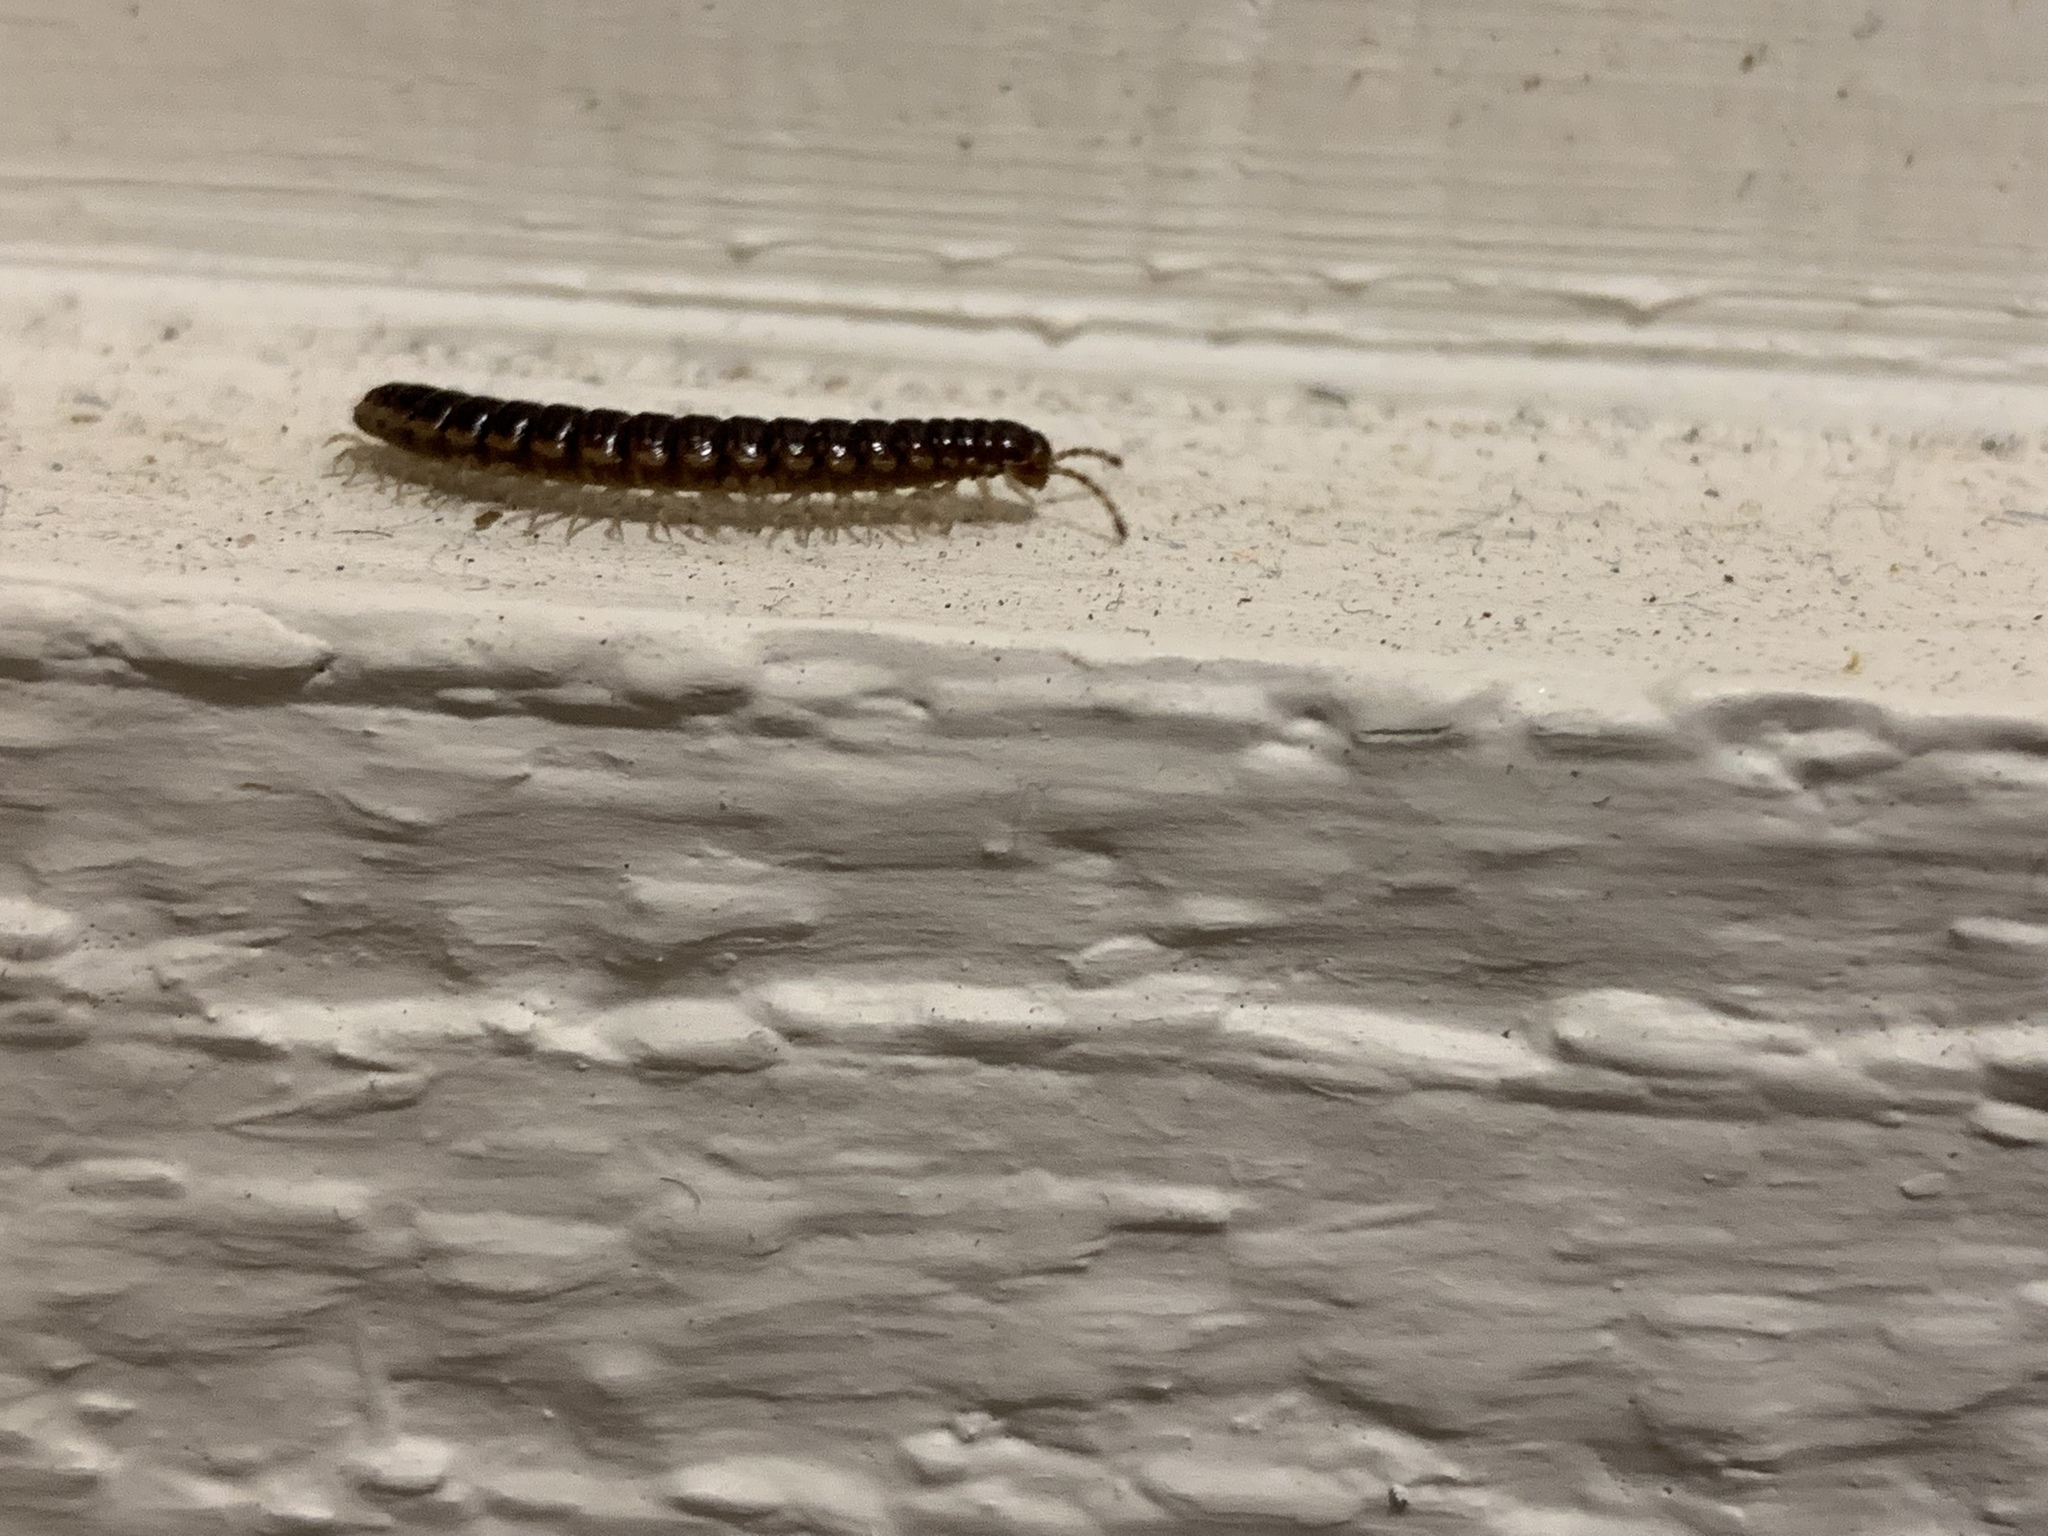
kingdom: Animalia
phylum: Arthropoda
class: Diplopoda
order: Polydesmida
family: Paradoxosomatidae
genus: Oxidus
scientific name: Oxidus gracilis
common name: Greenhouse millipede
